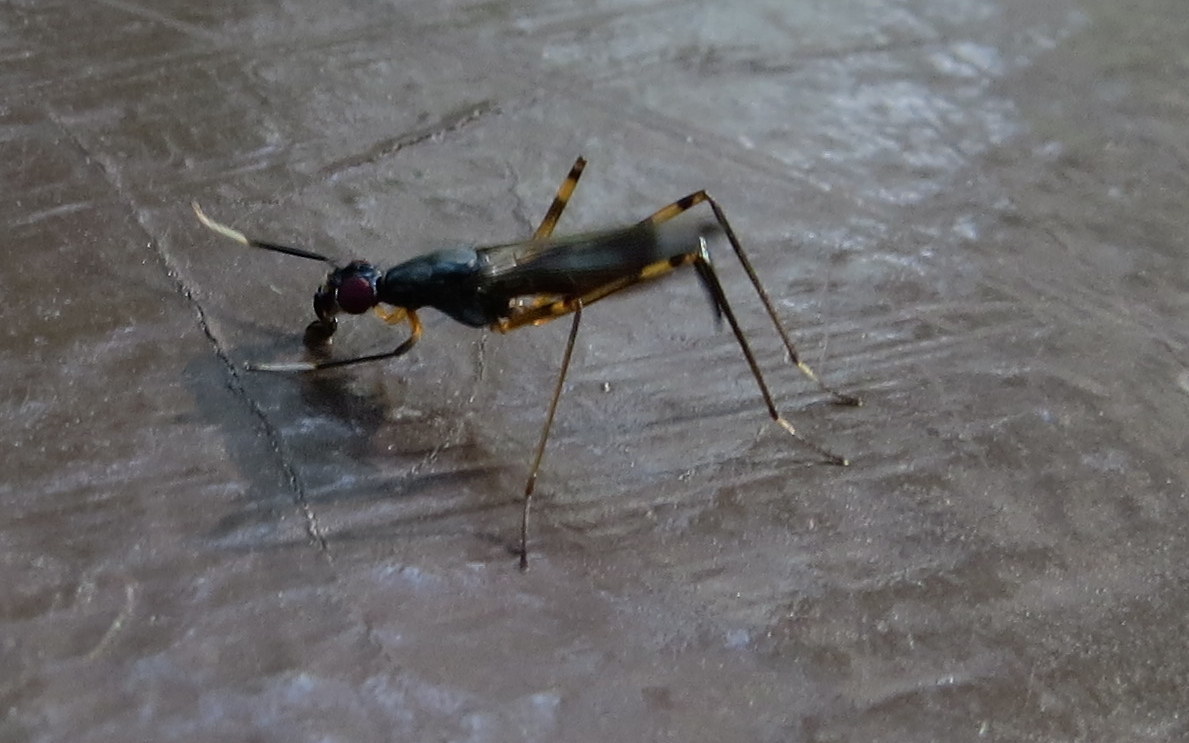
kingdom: Animalia
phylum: Arthropoda
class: Insecta
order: Diptera
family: Micropezidae
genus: Rainieria
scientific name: Rainieria antennaepes
